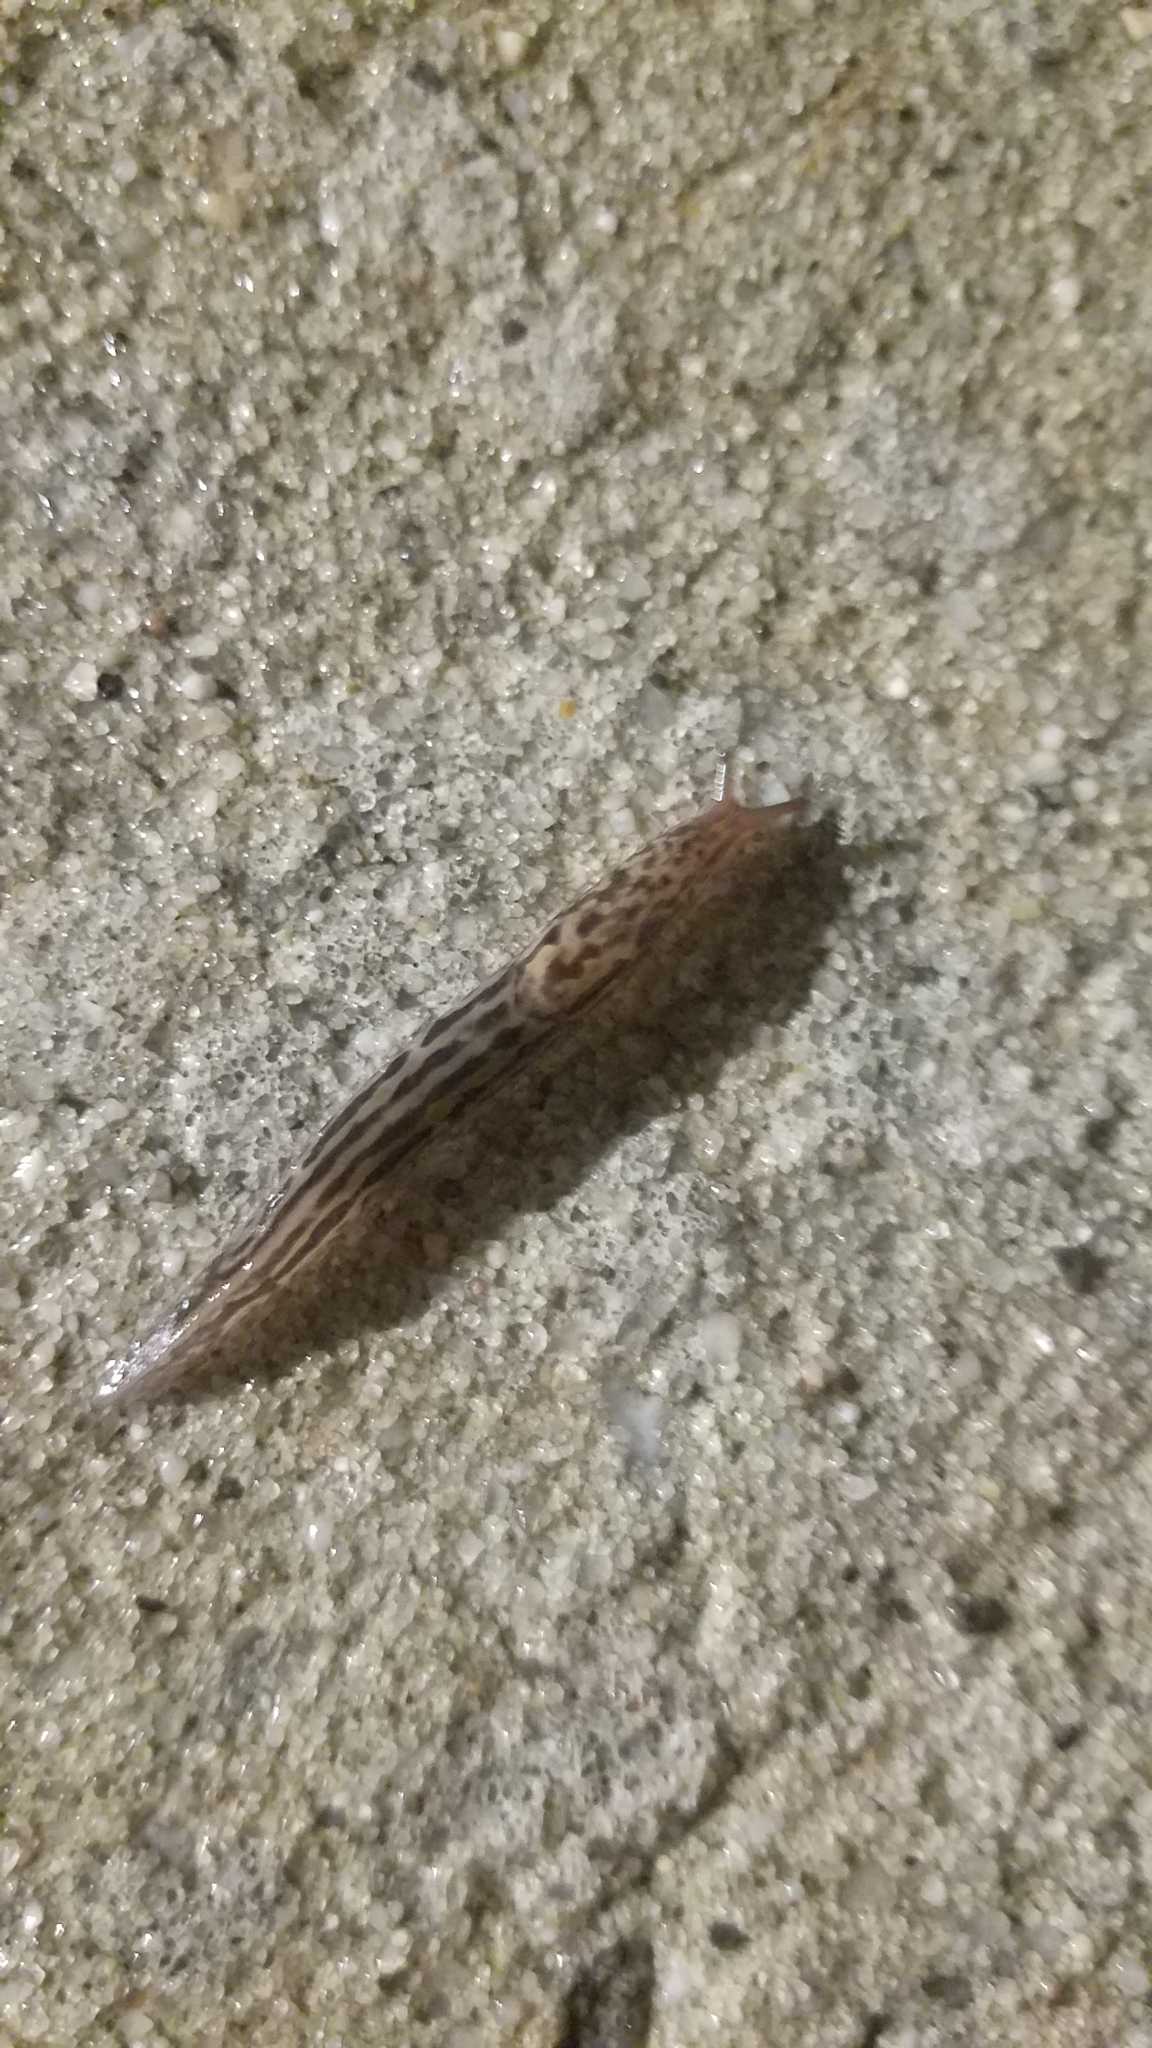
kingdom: Animalia
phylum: Mollusca
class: Gastropoda
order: Stylommatophora
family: Limacidae
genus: Limax
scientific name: Limax maximus
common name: Great grey slug
